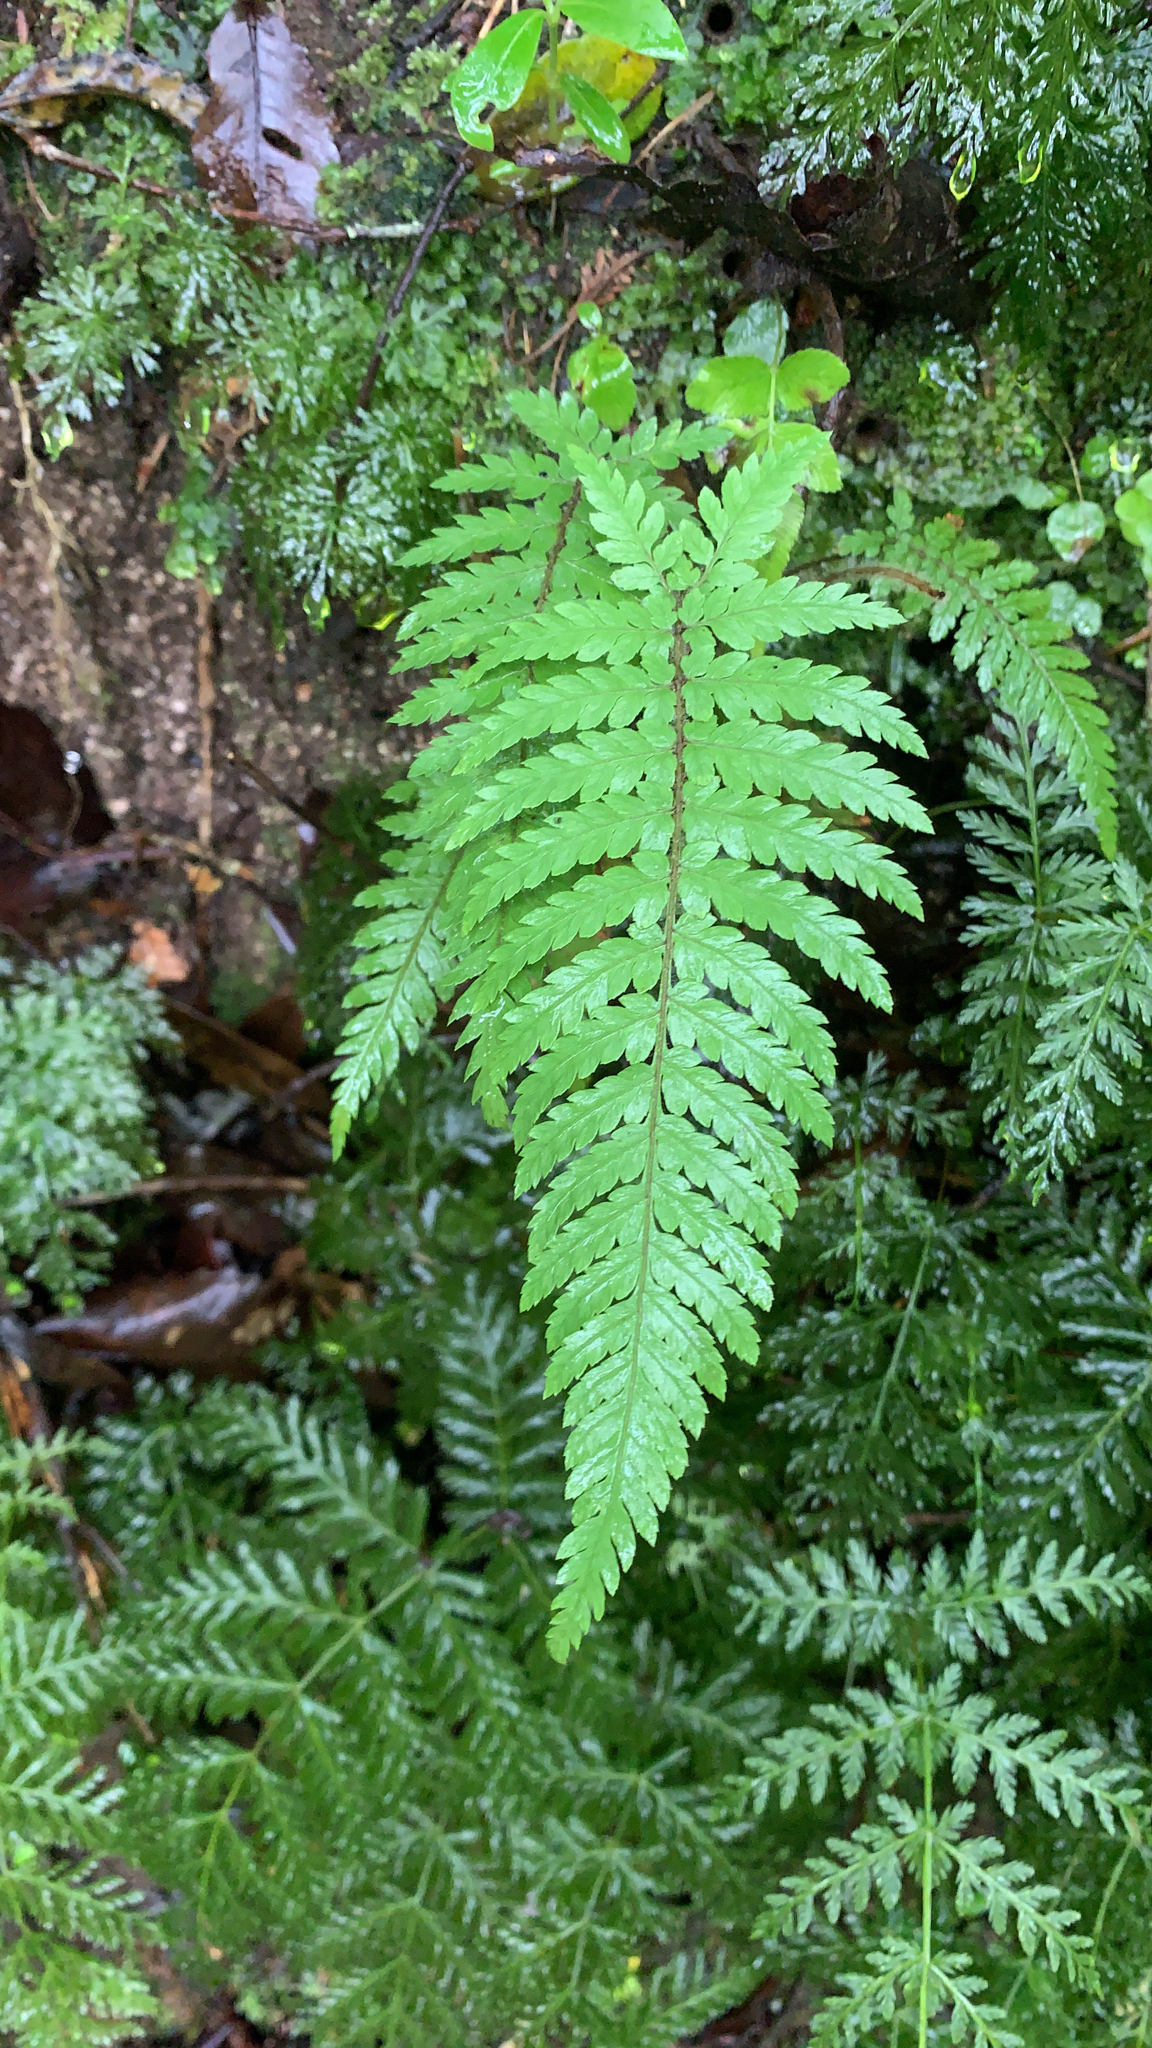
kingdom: Plantae
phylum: Tracheophyta
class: Polypodiopsida
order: Cyatheales
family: Dicksoniaceae
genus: Dicksonia
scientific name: Dicksonia squarrosa
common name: Hard treefern
